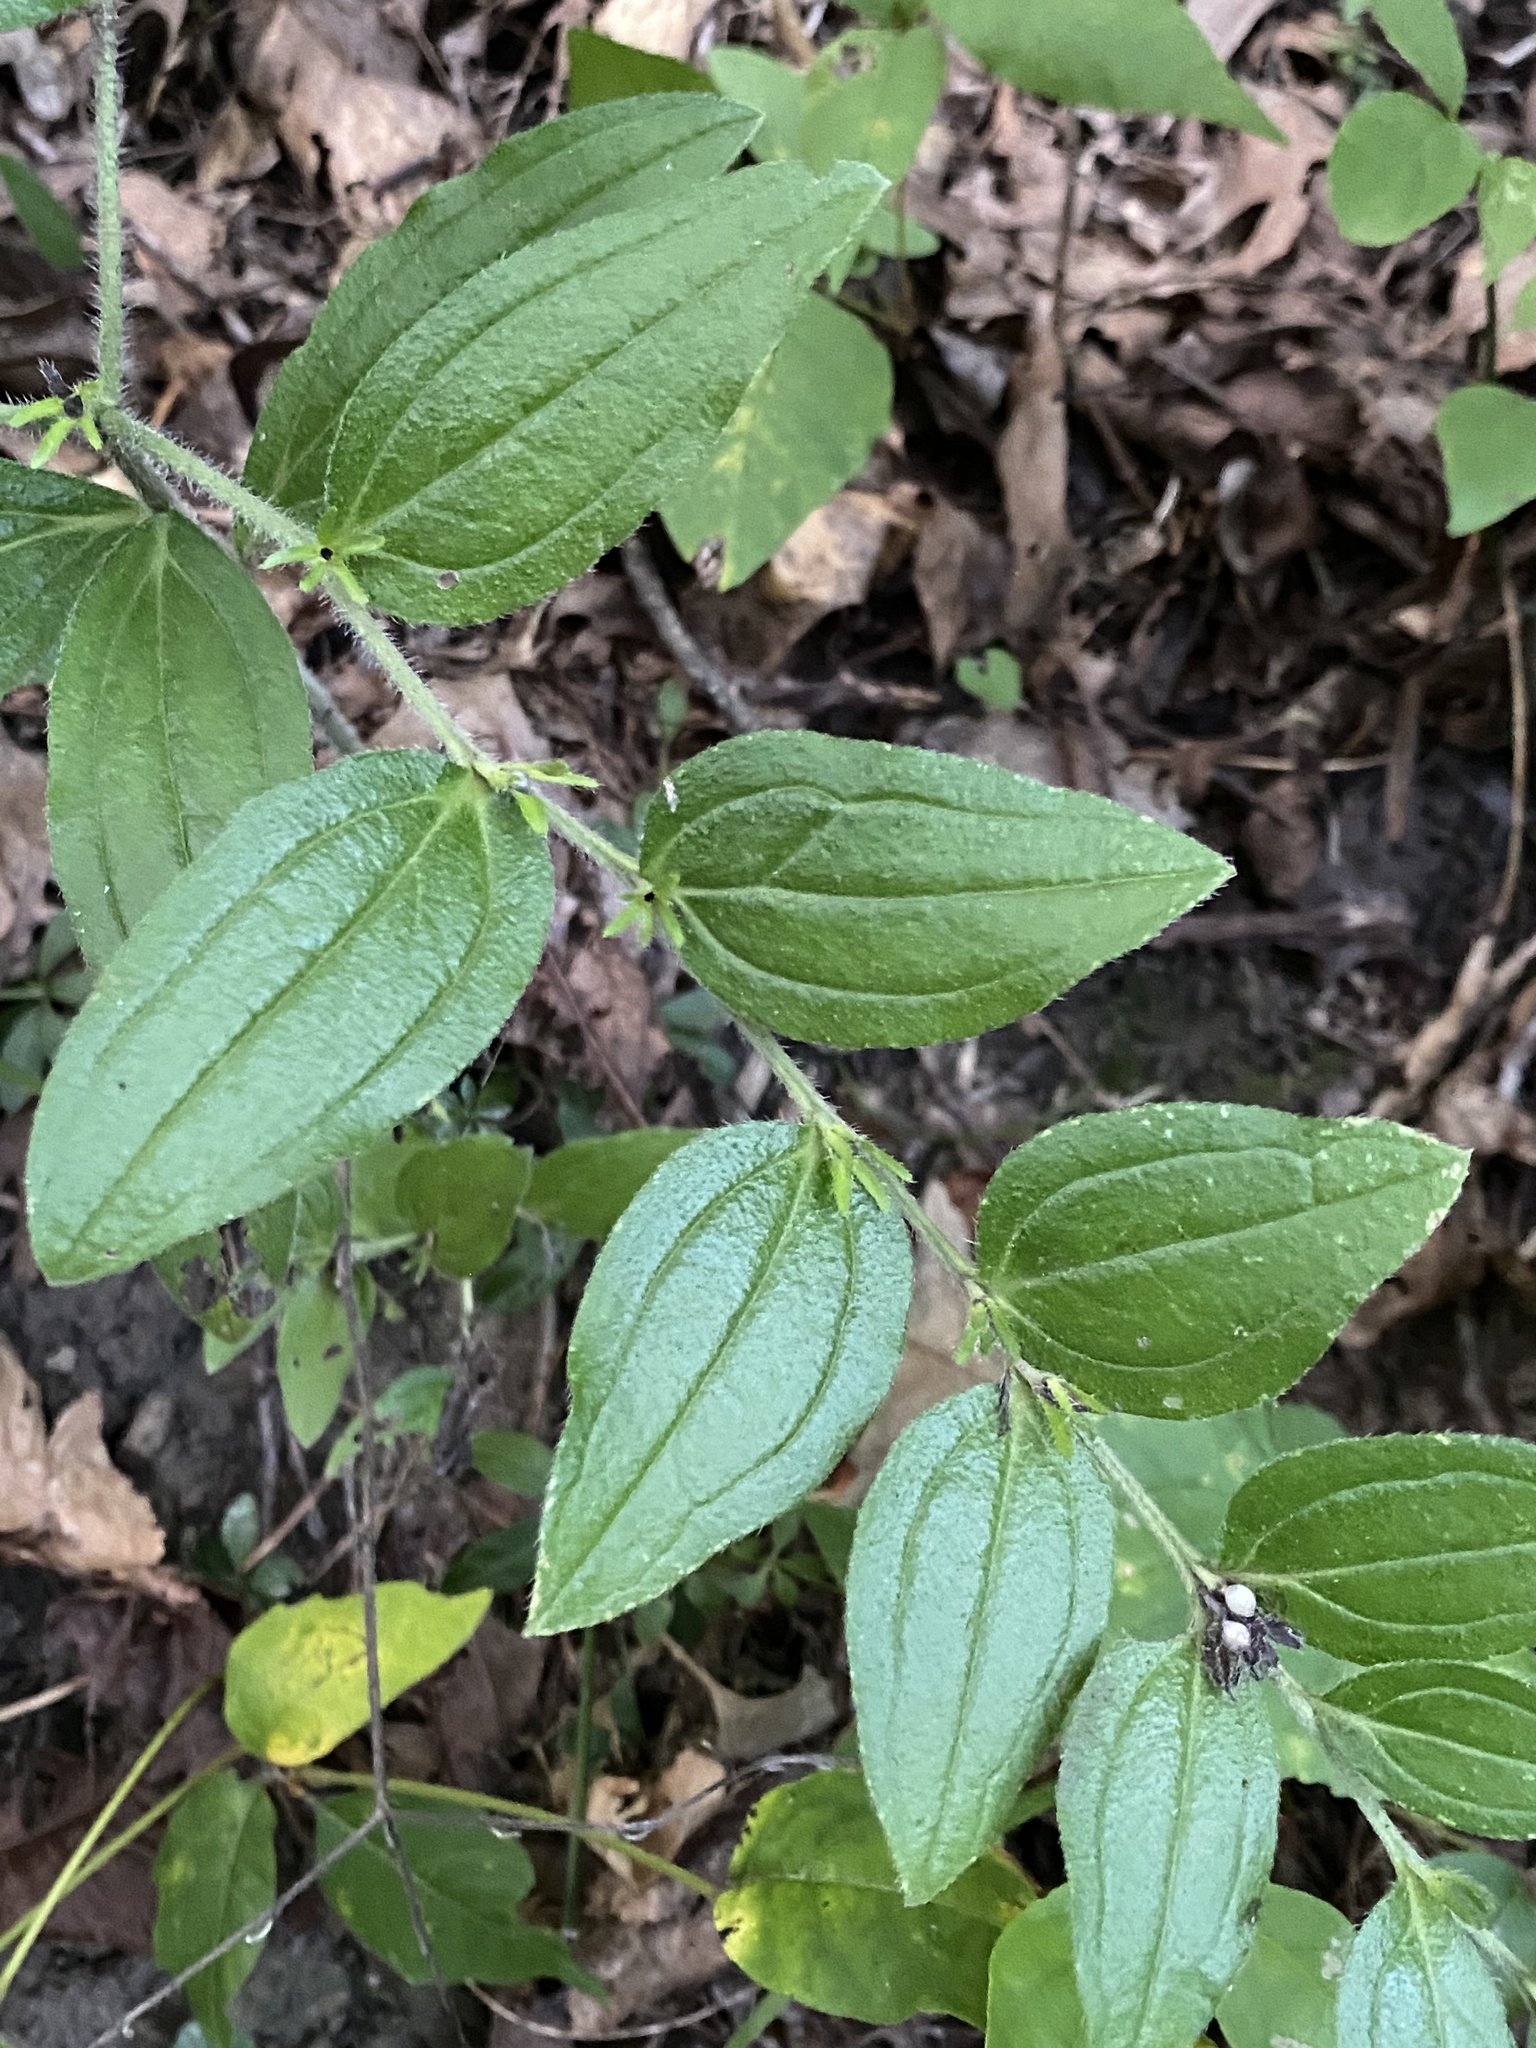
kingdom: Plantae
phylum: Tracheophyta
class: Magnoliopsida
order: Boraginales
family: Boraginaceae
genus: Lithospermum
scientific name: Lithospermum tuberosum
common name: Southern stoneseed
